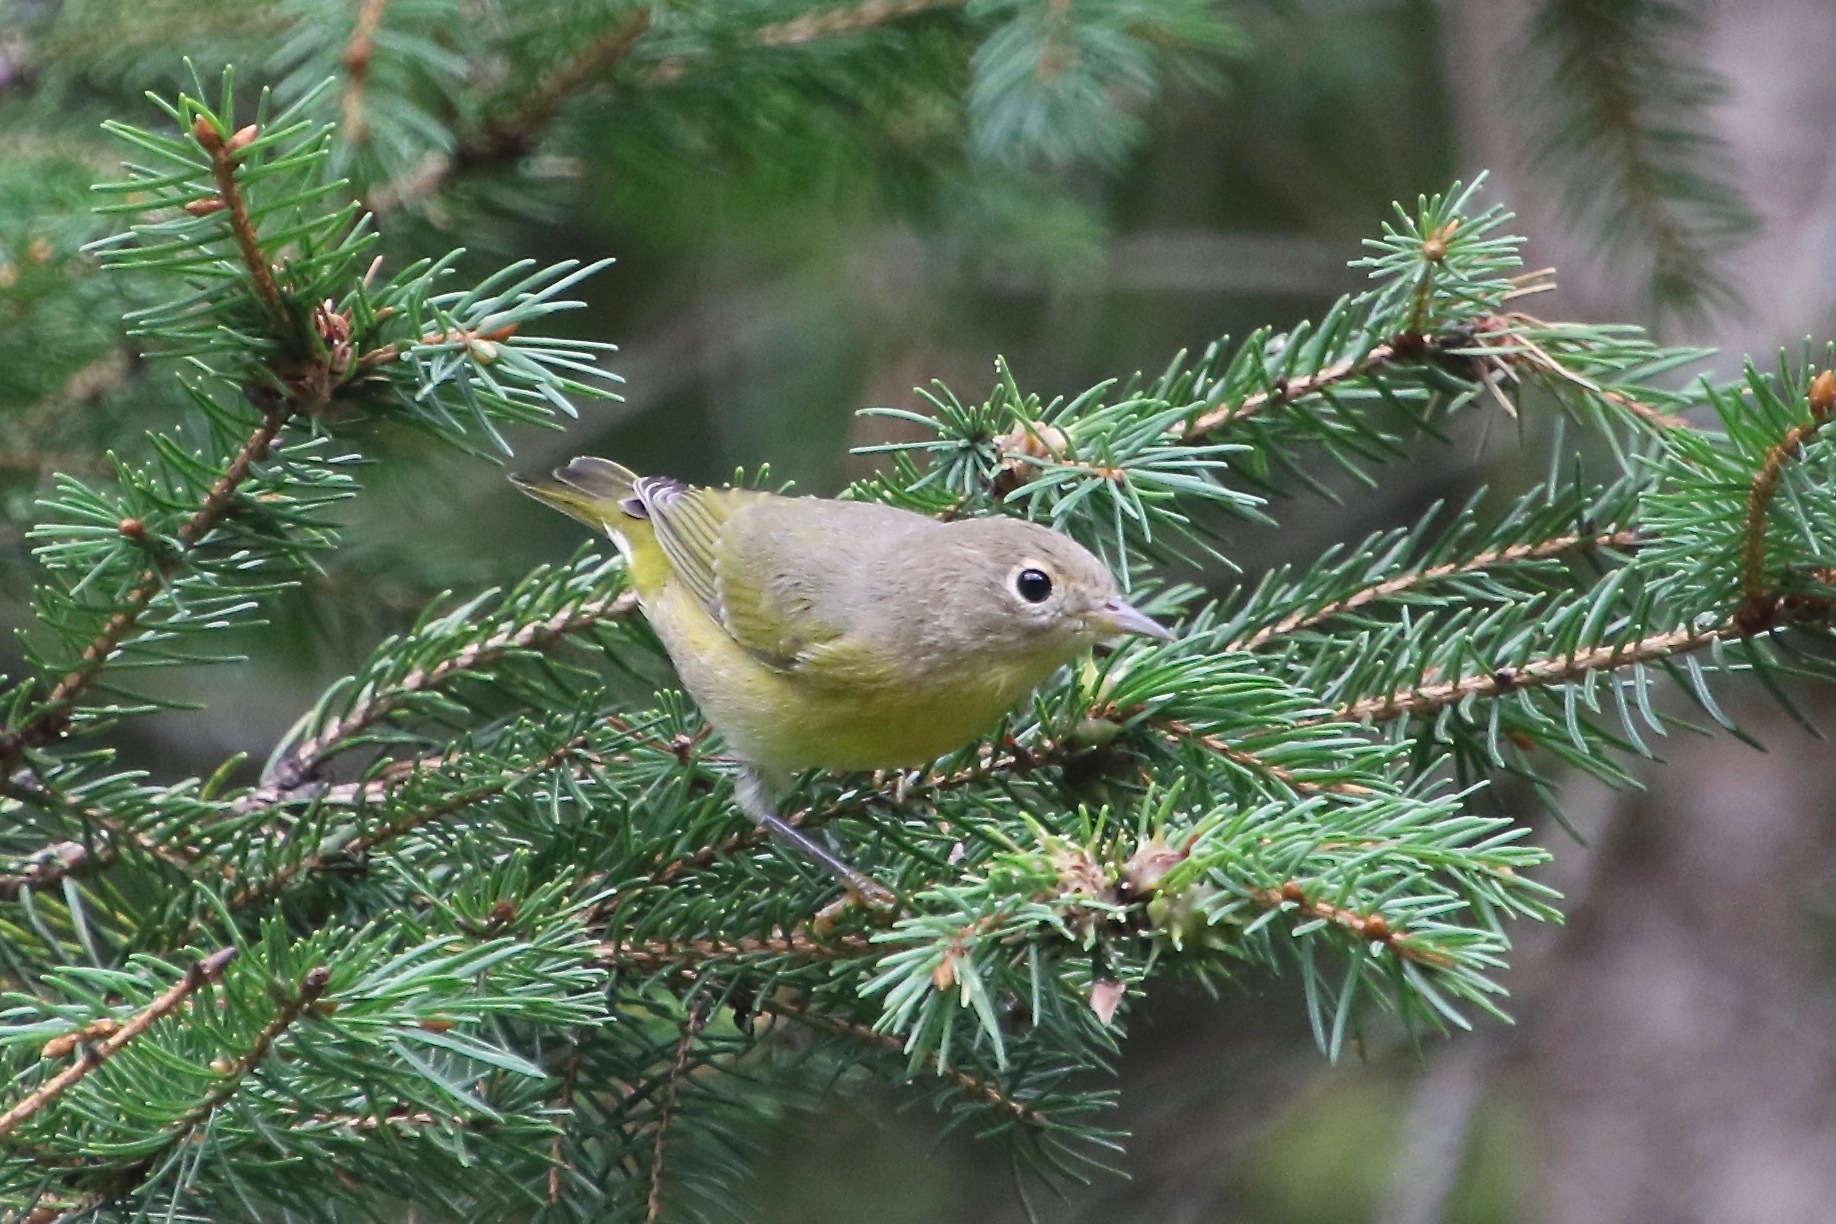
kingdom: Animalia
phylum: Chordata
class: Aves
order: Passeriformes
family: Parulidae
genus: Leiothlypis
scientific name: Leiothlypis ruficapilla
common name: Nashville warbler
